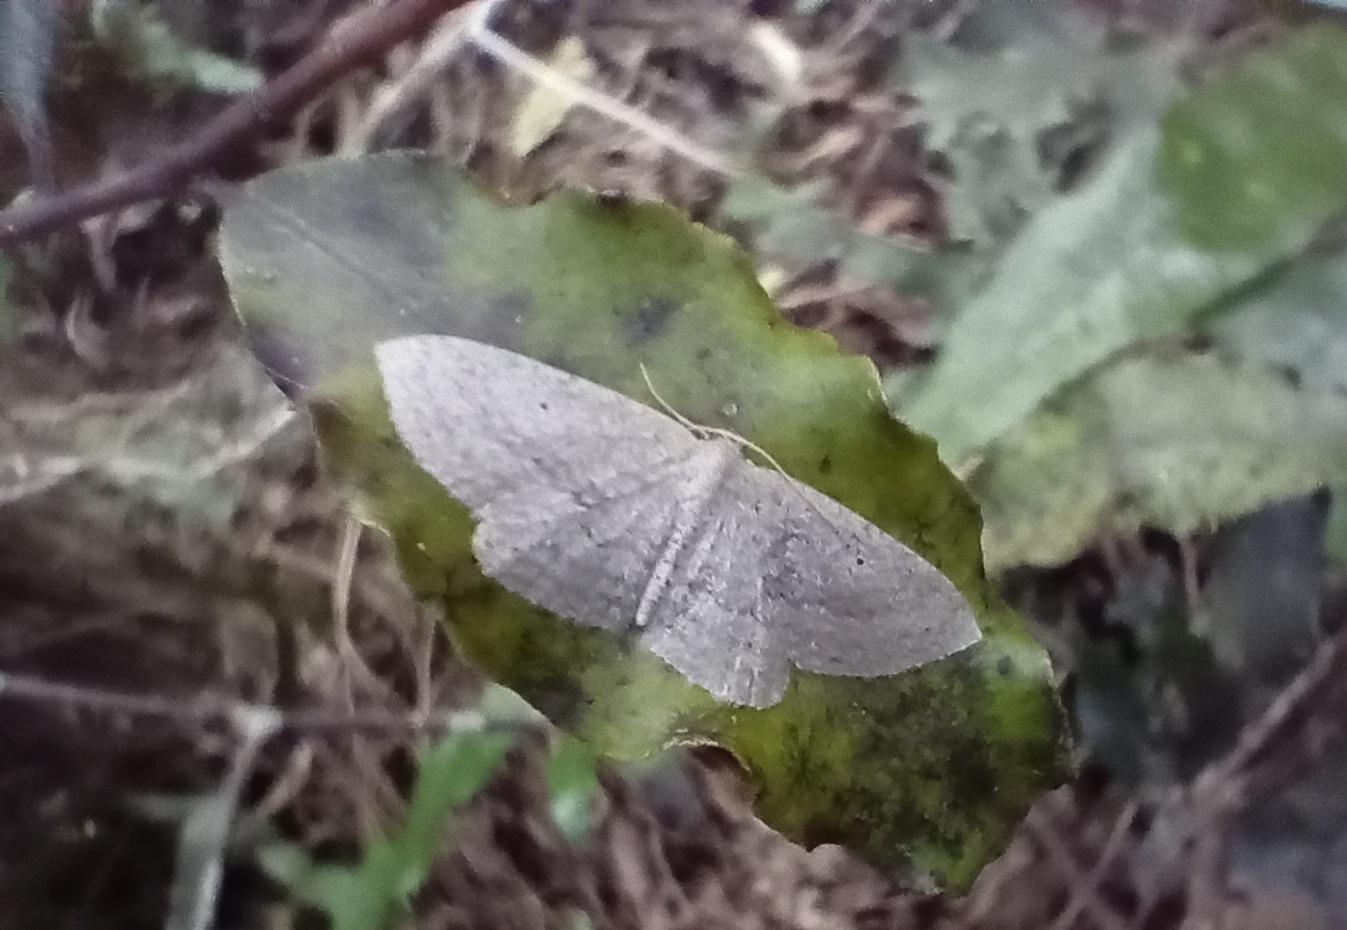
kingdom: Animalia
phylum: Arthropoda
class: Insecta
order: Lepidoptera
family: Geometridae
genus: Poecilasthena
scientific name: Poecilasthena schistaria
